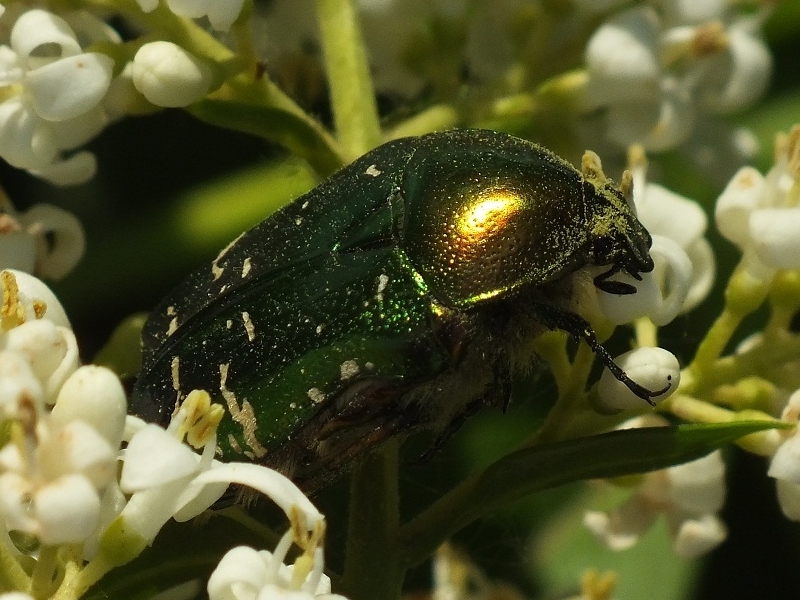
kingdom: Animalia
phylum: Arthropoda
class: Insecta
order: Coleoptera
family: Scarabaeidae
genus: Cetonia
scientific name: Cetonia aurata
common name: Rose chafer
